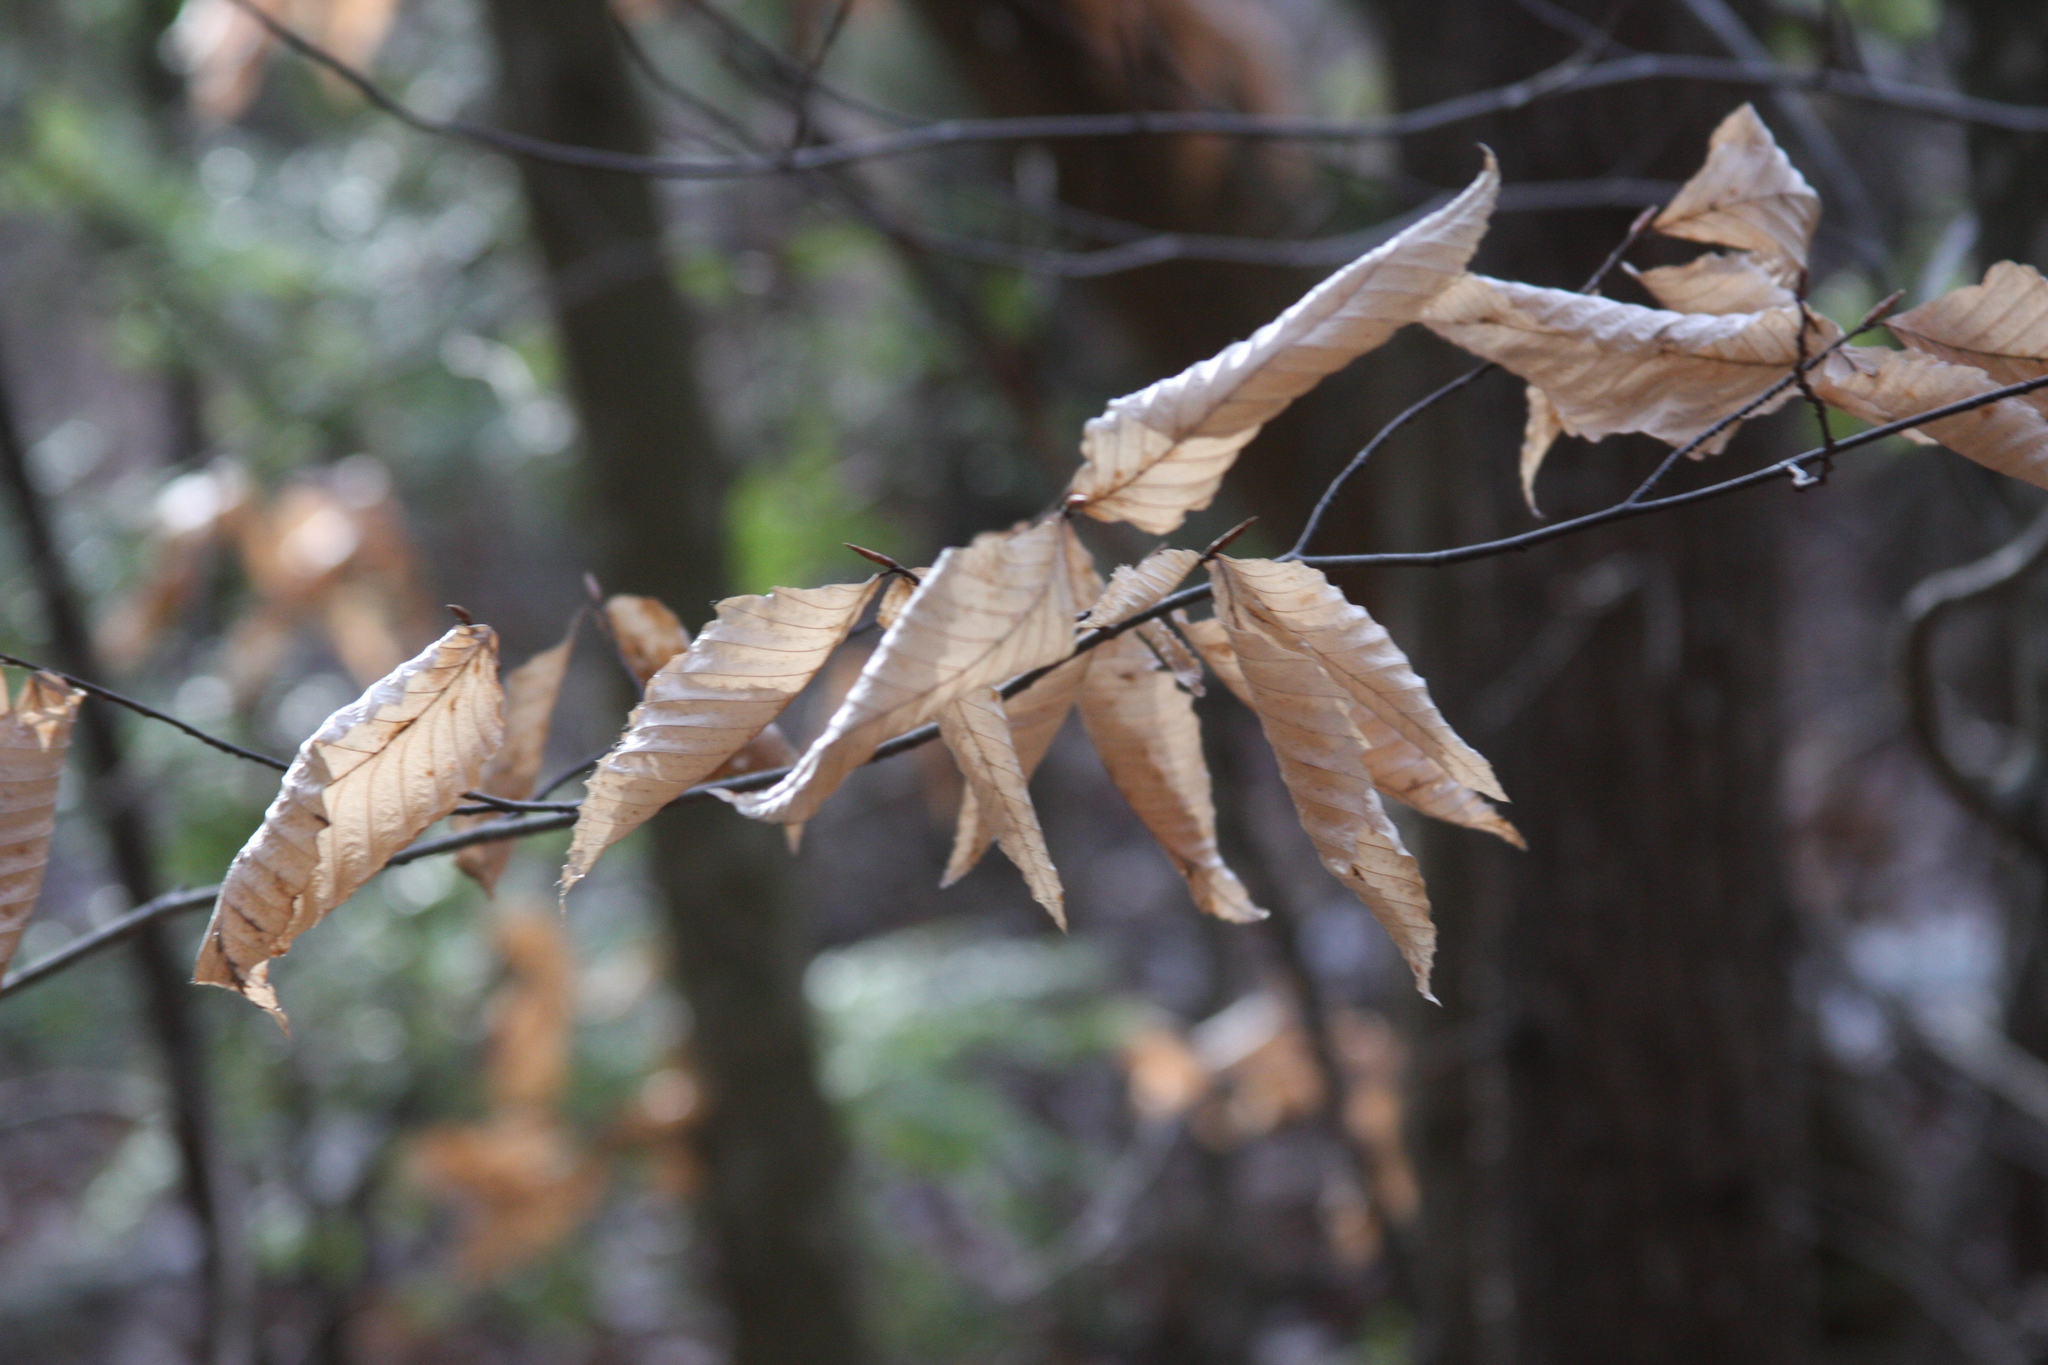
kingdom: Plantae
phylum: Tracheophyta
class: Magnoliopsida
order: Fagales
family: Fagaceae
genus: Fagus
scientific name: Fagus grandifolia
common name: American beech
